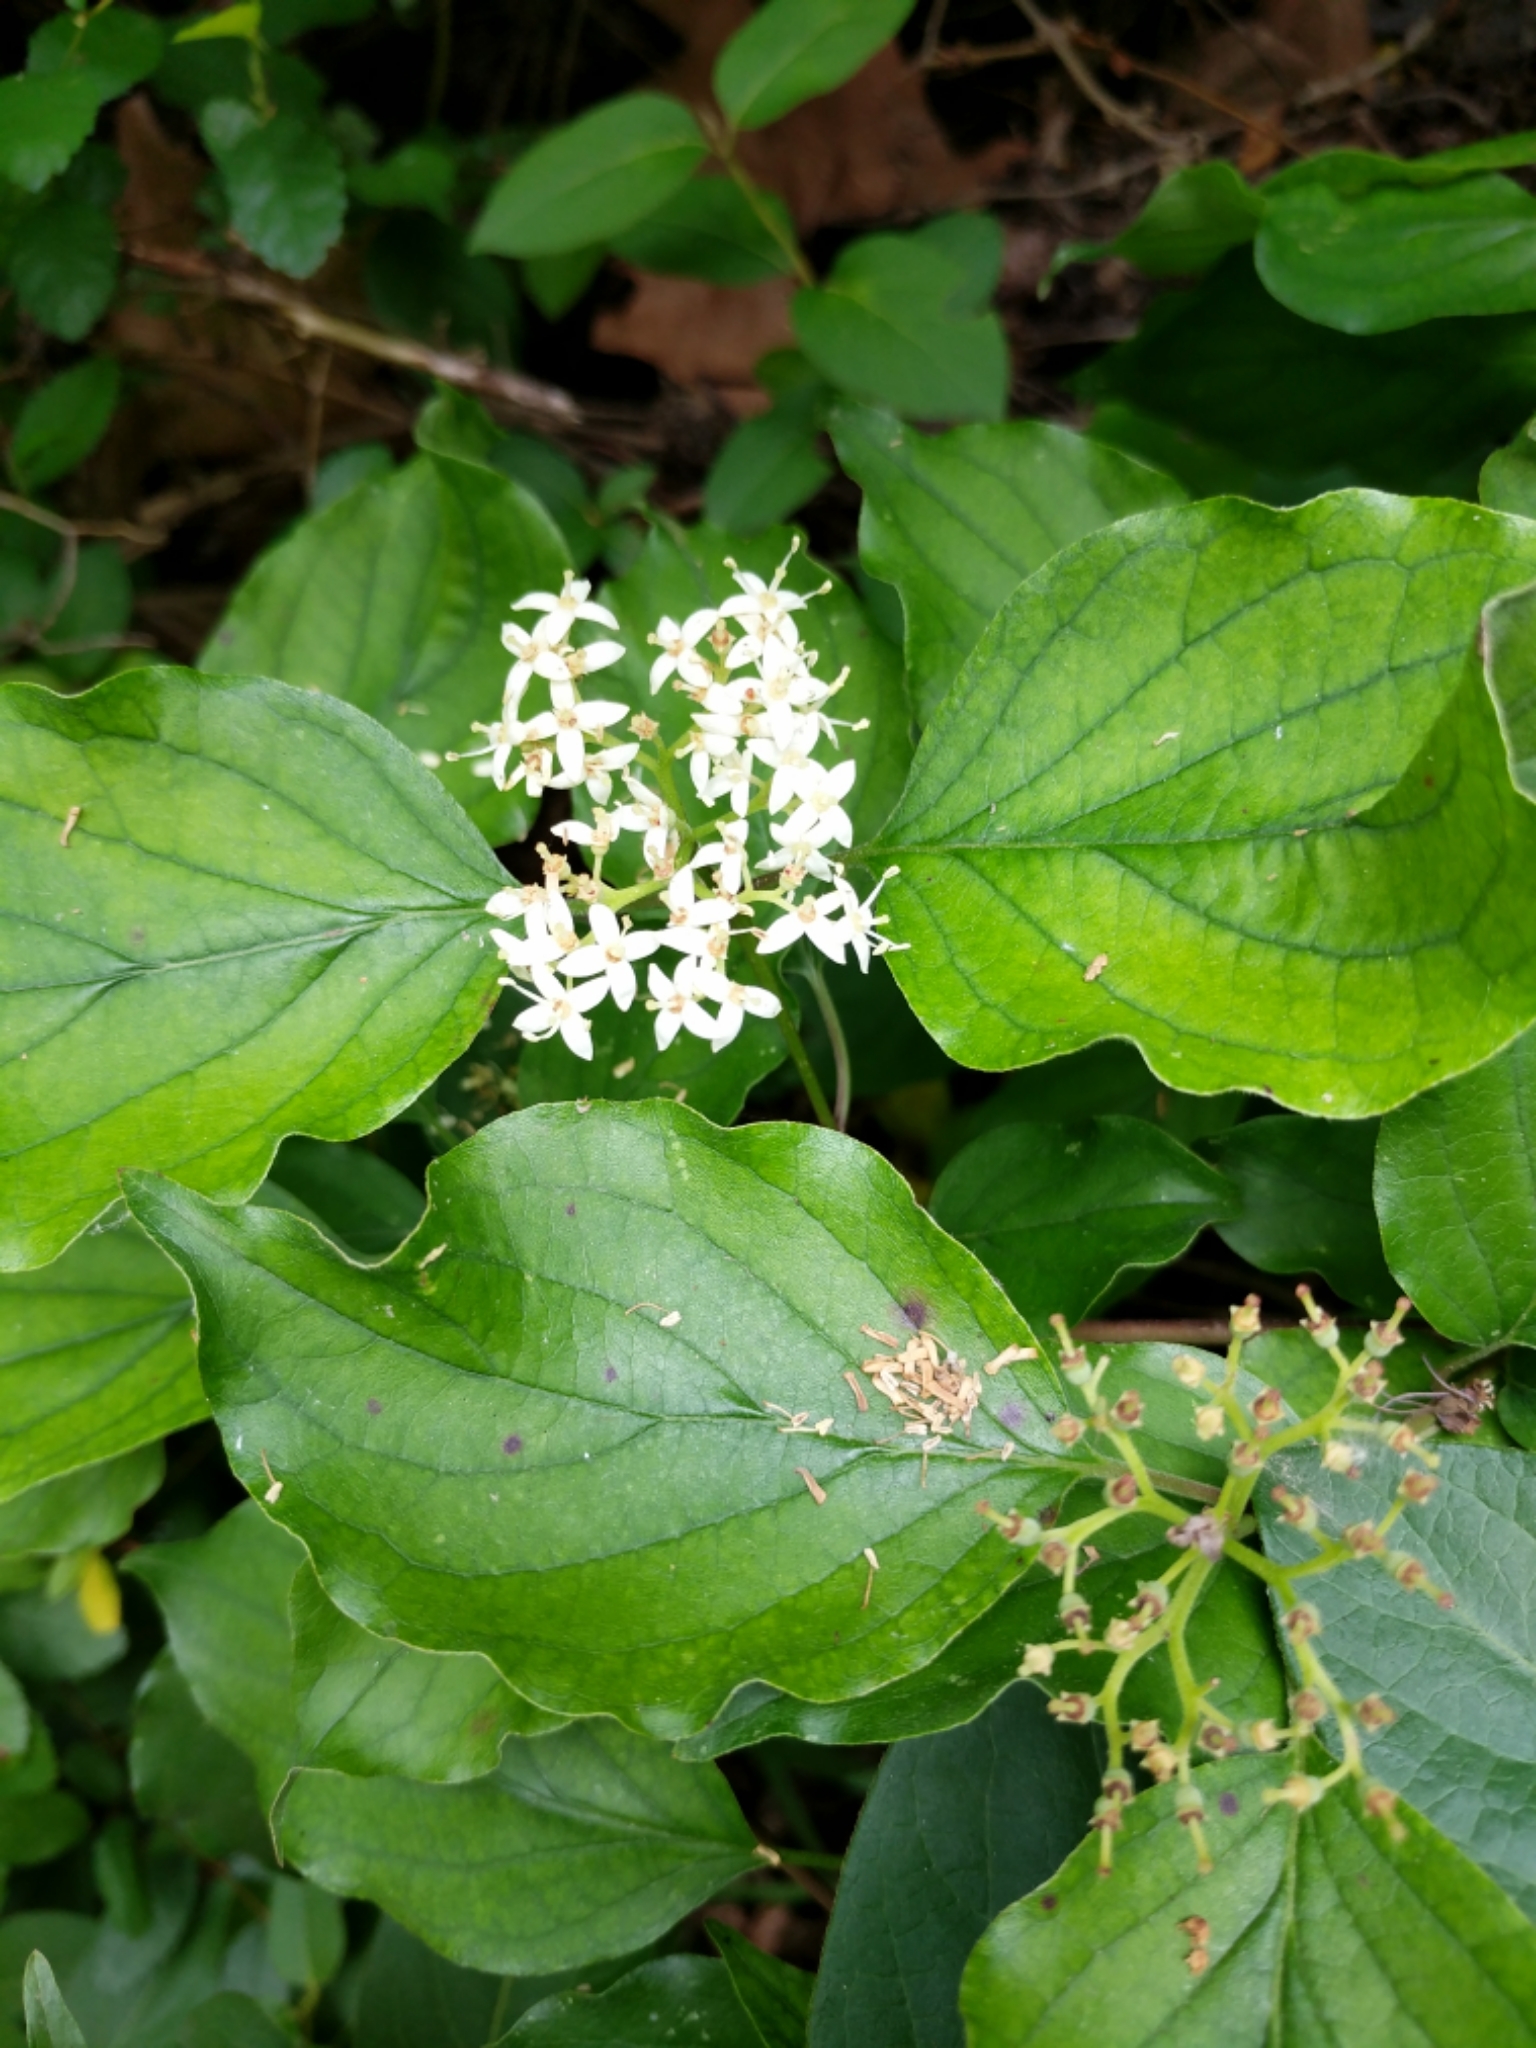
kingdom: Plantae
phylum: Tracheophyta
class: Magnoliopsida
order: Cornales
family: Cornaceae
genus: Cornus
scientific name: Cornus drummondii
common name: Rough-leaf dogwood
